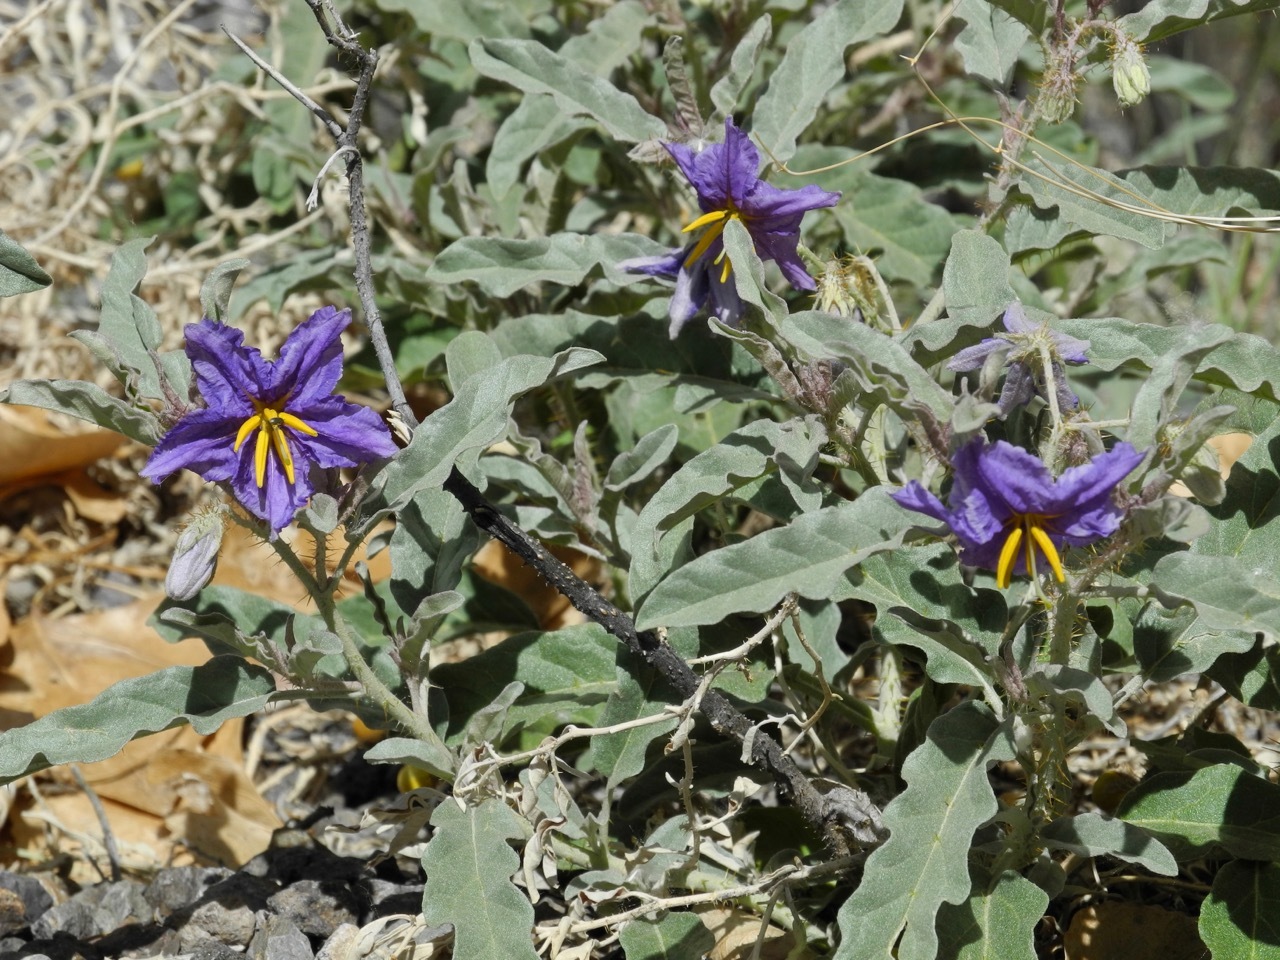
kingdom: Plantae
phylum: Tracheophyta
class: Magnoliopsida
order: Solanales
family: Solanaceae
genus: Solanum
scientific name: Solanum elaeagnifolium
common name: Silverleaf nightshade
